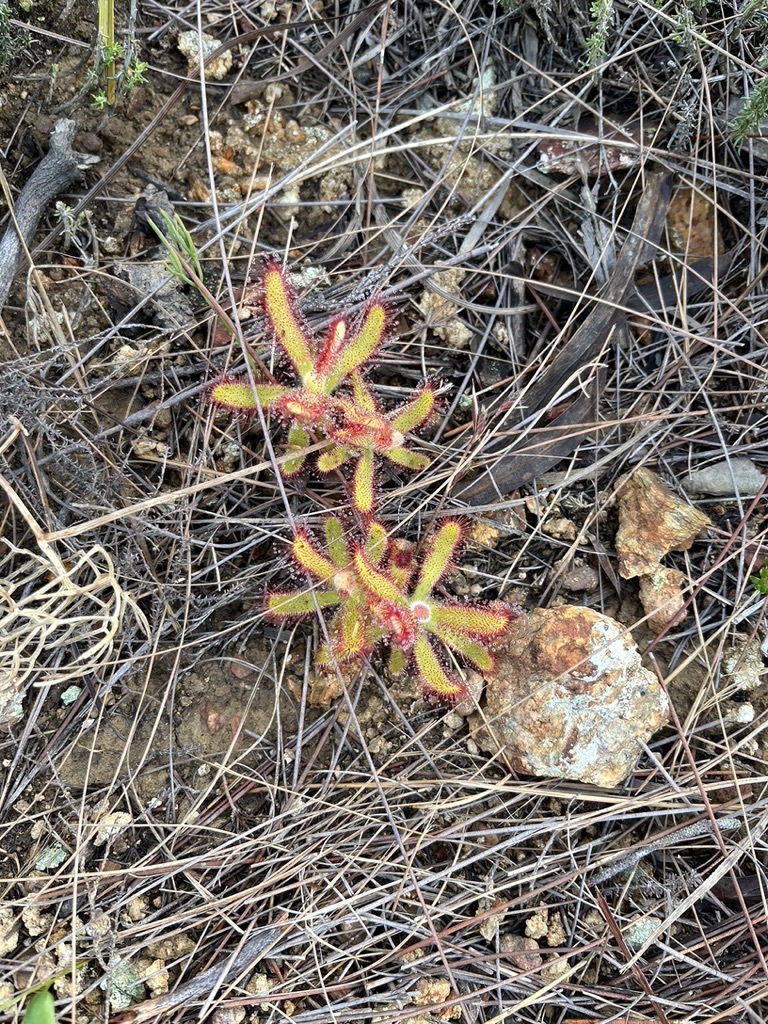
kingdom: Plantae
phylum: Tracheophyta
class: Magnoliopsida
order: Caryophyllales
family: Droseraceae
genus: Drosera
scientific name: Drosera hilaris
